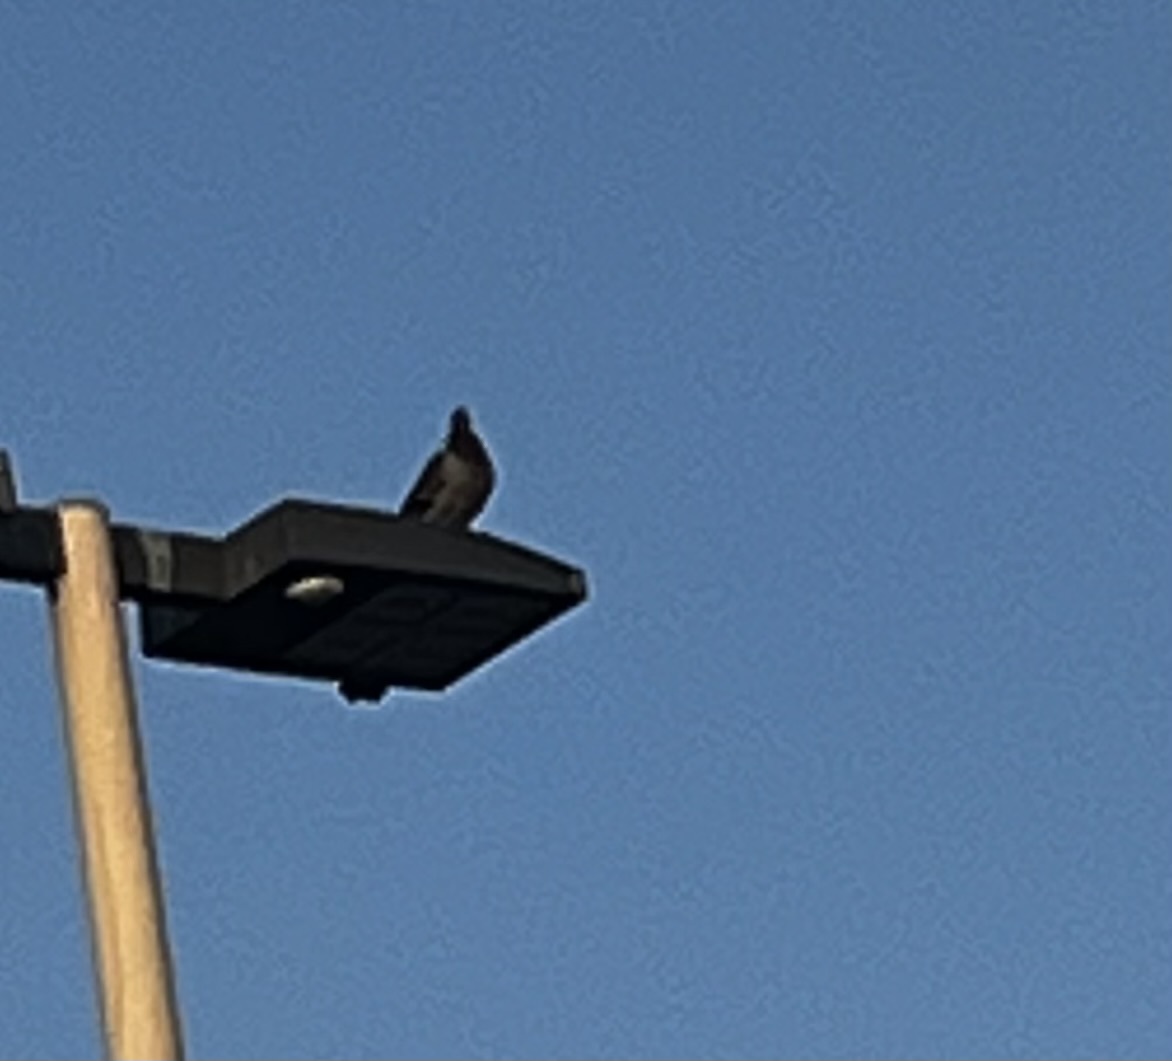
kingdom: Animalia
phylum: Chordata
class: Aves
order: Columbiformes
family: Columbidae
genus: Columba
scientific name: Columba livia
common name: Rock pigeon
